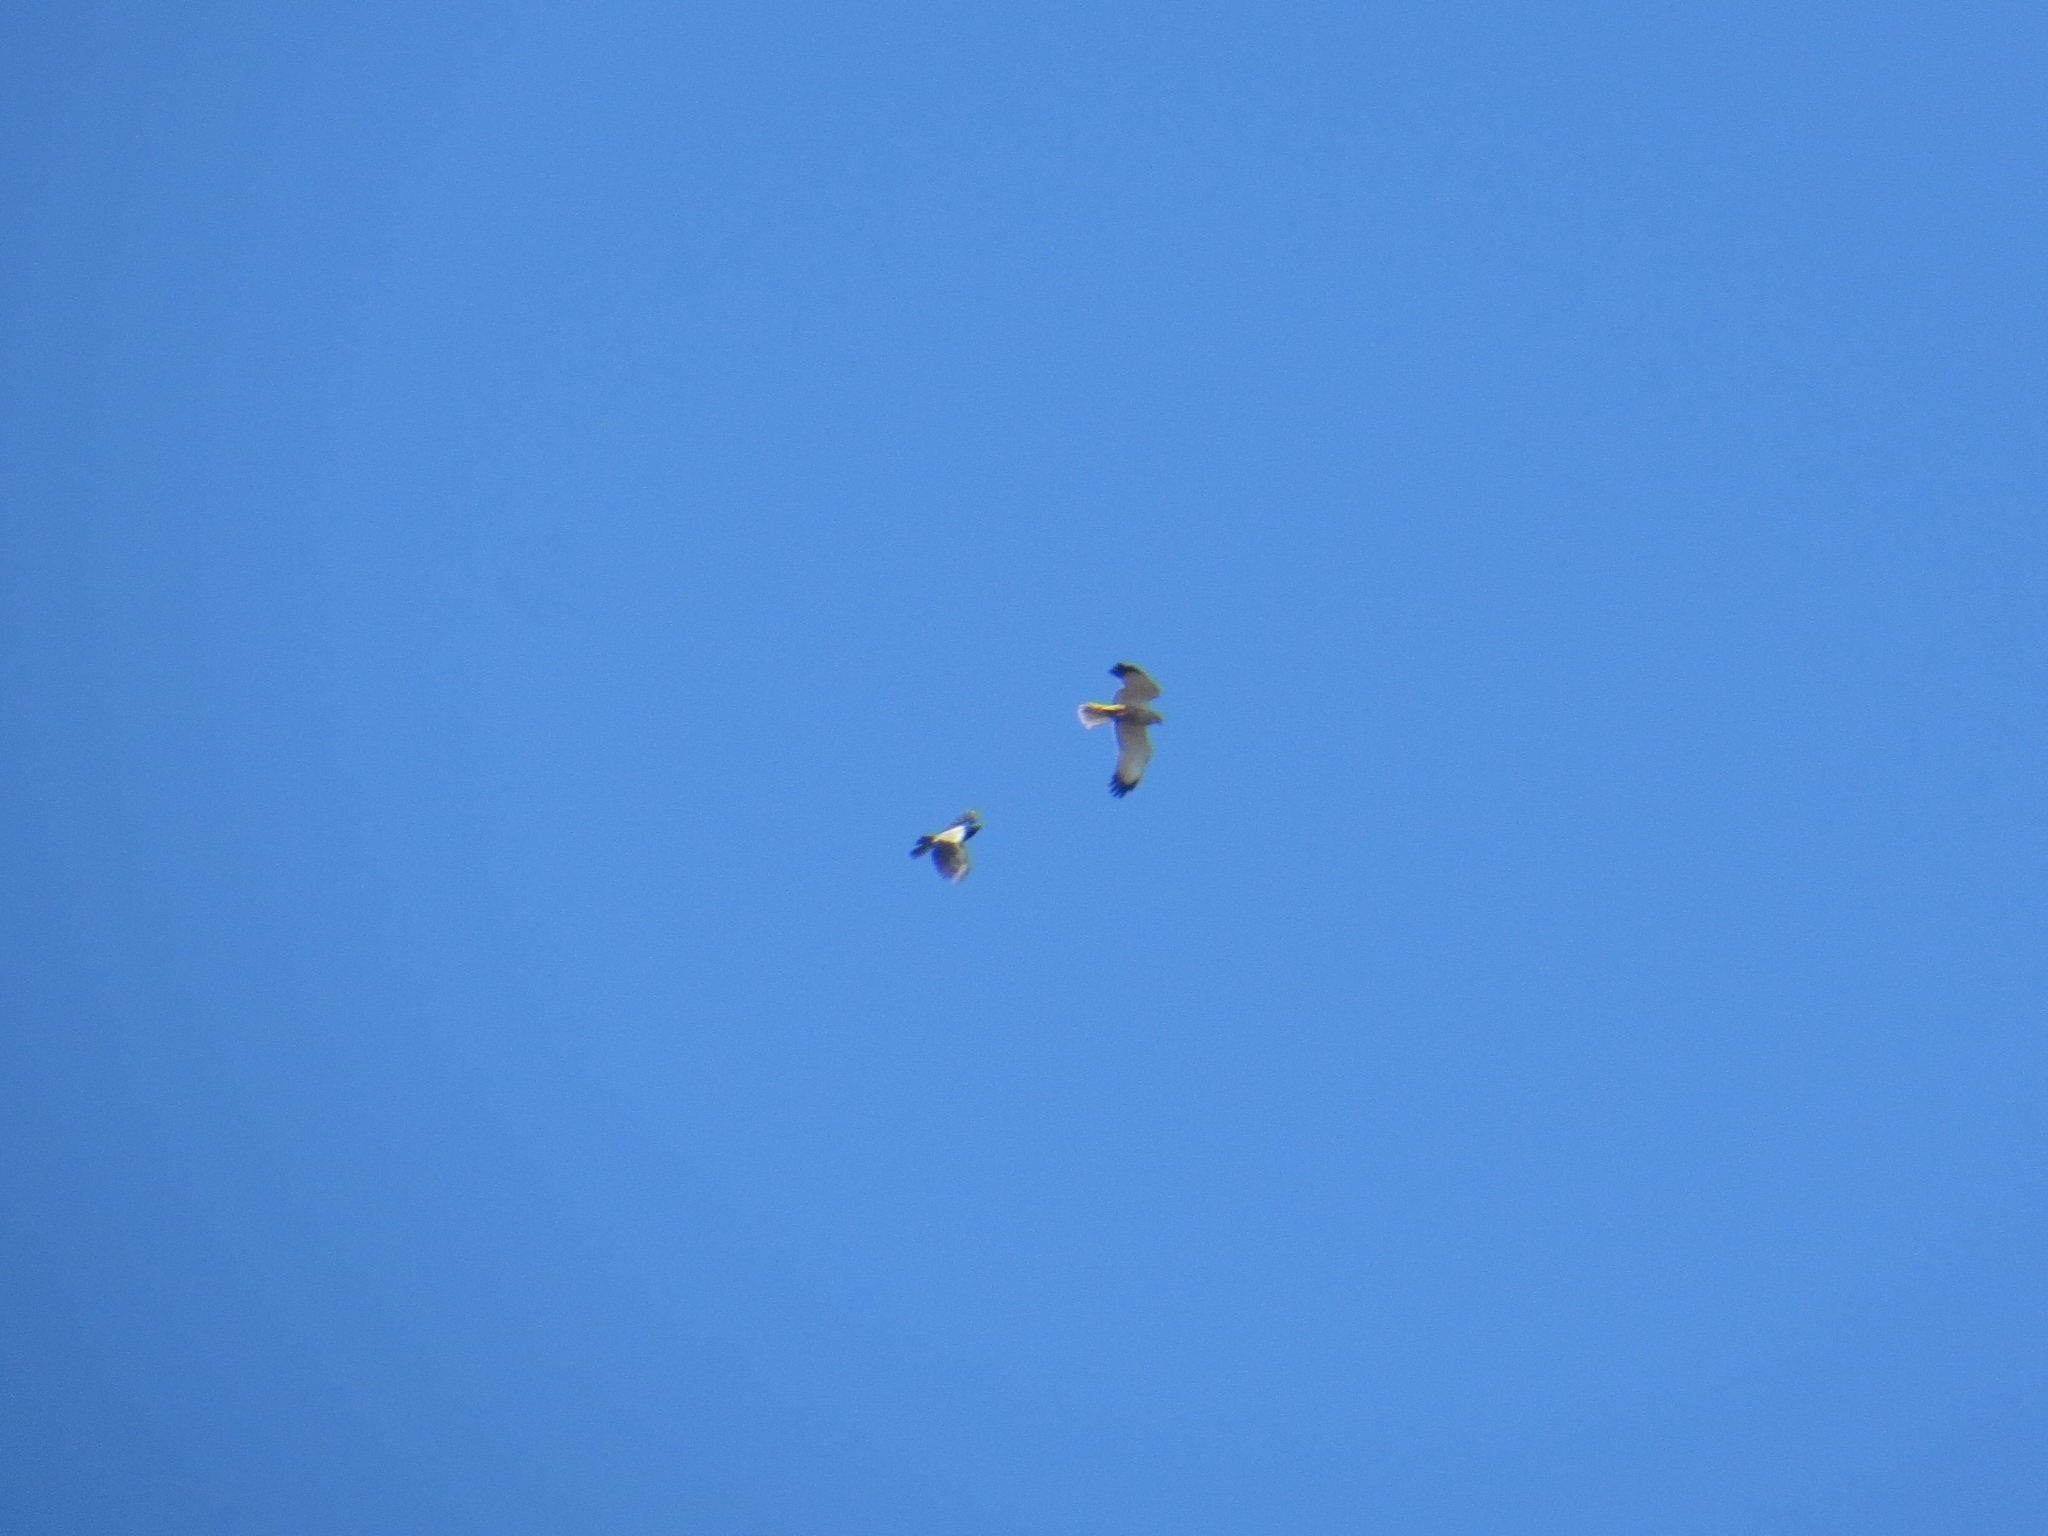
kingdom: Animalia
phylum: Chordata
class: Aves
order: Accipitriformes
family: Accipitridae
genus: Circus
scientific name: Circus aeruginosus
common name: Western marsh harrier
